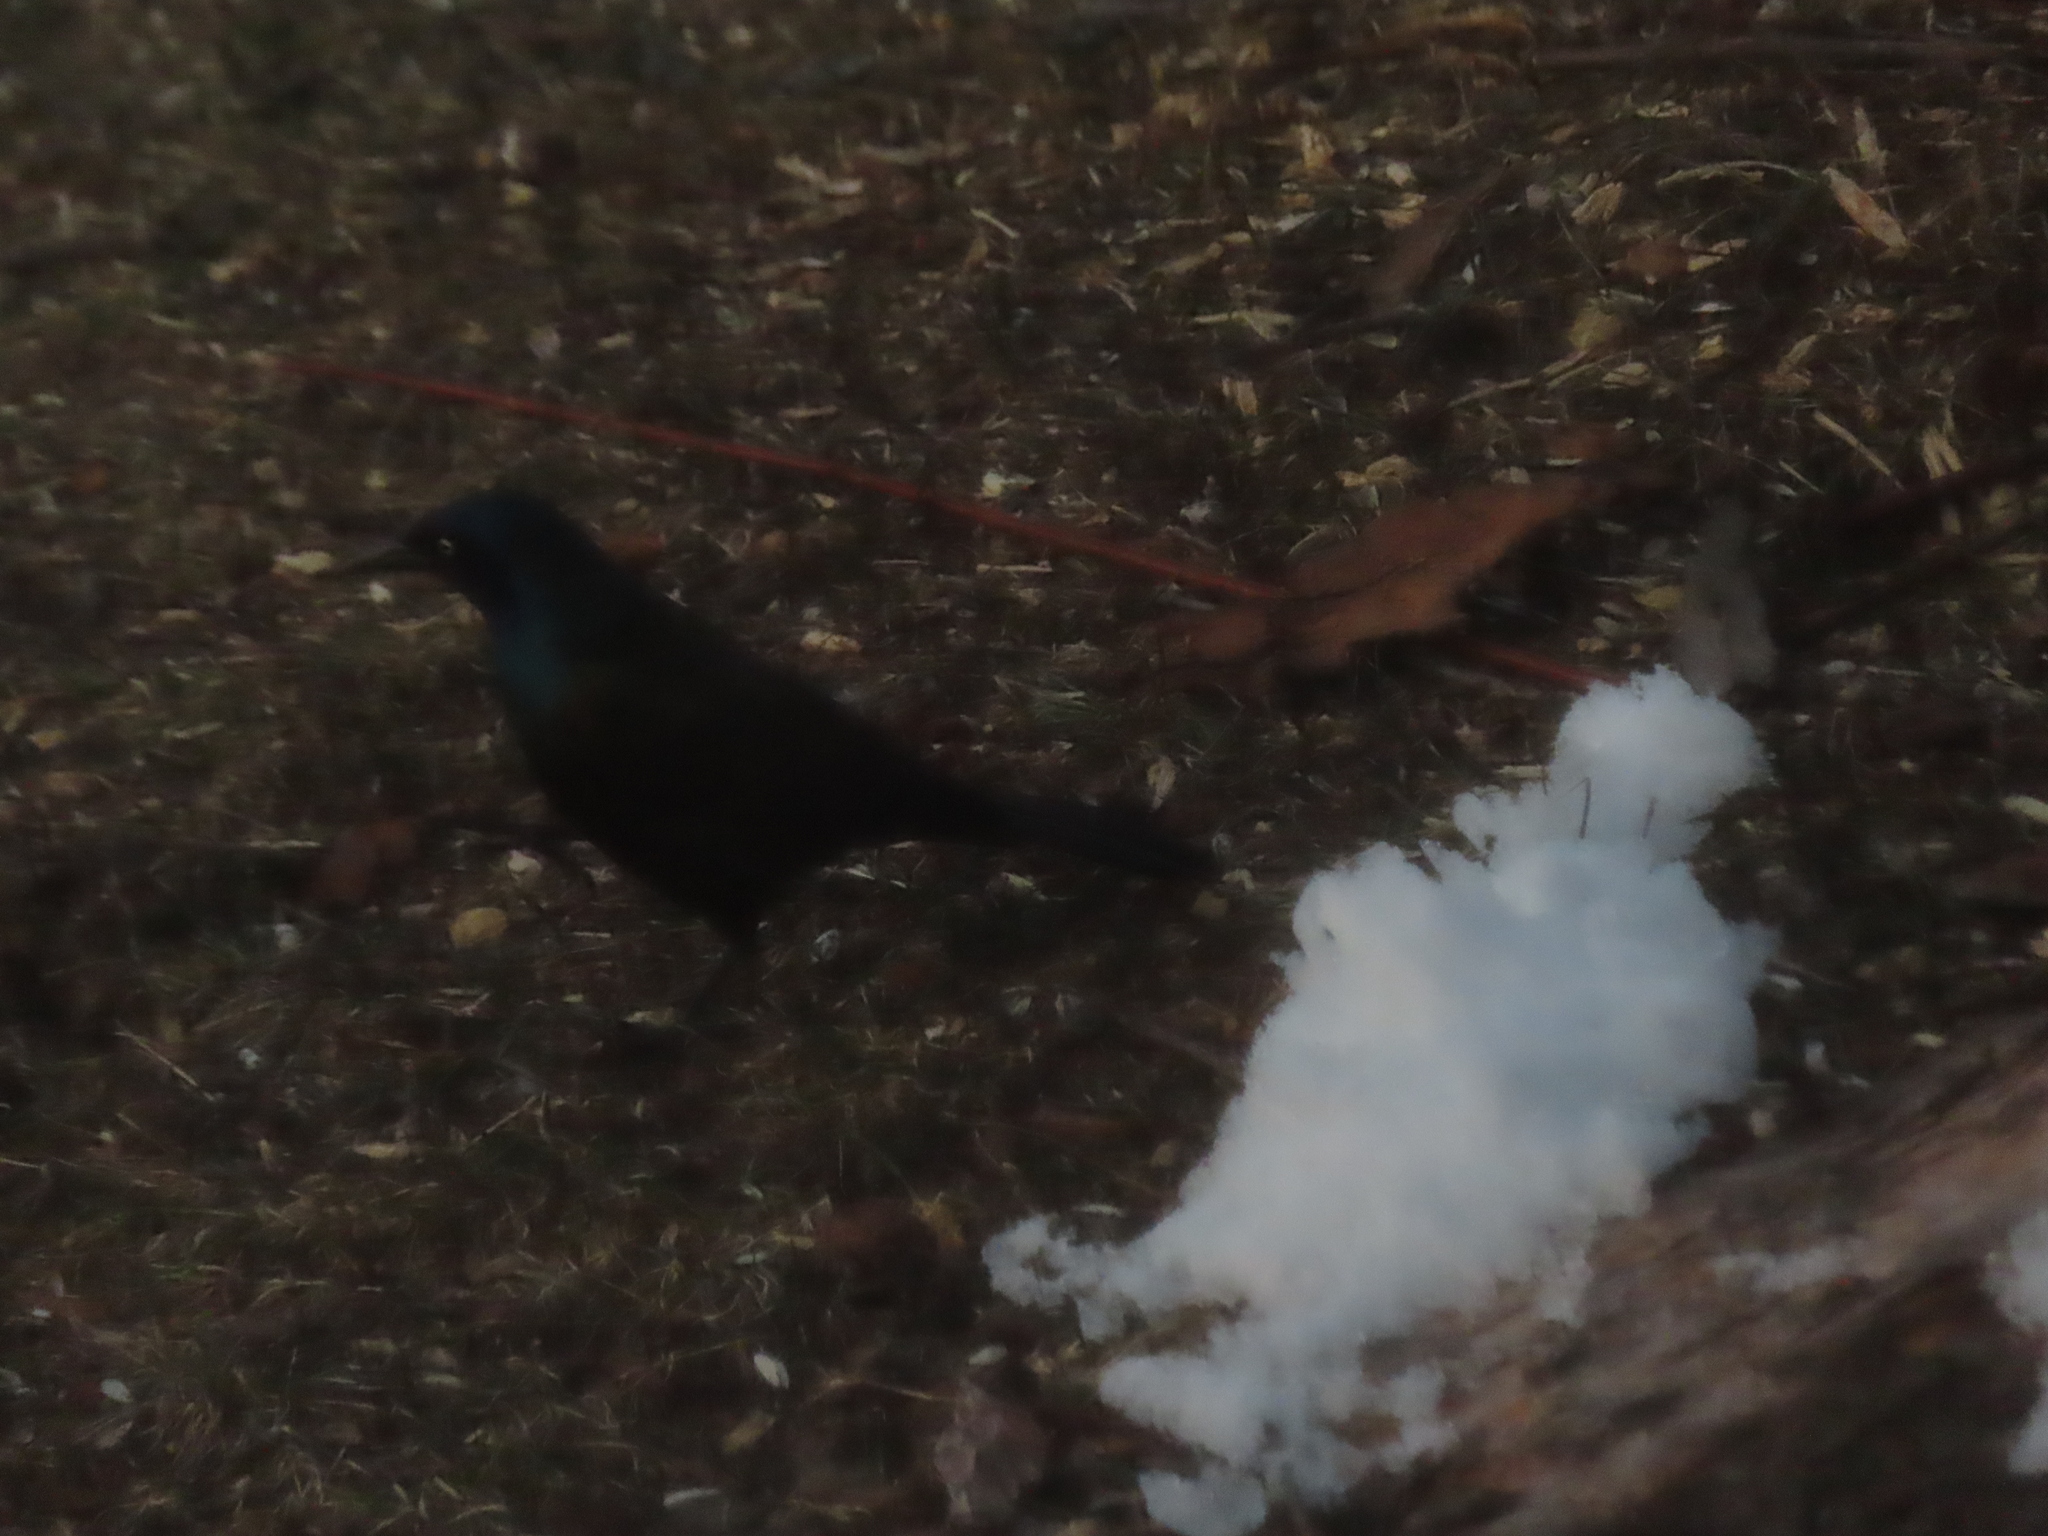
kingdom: Animalia
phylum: Chordata
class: Aves
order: Passeriformes
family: Icteridae
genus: Quiscalus
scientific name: Quiscalus quiscula
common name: Common grackle
